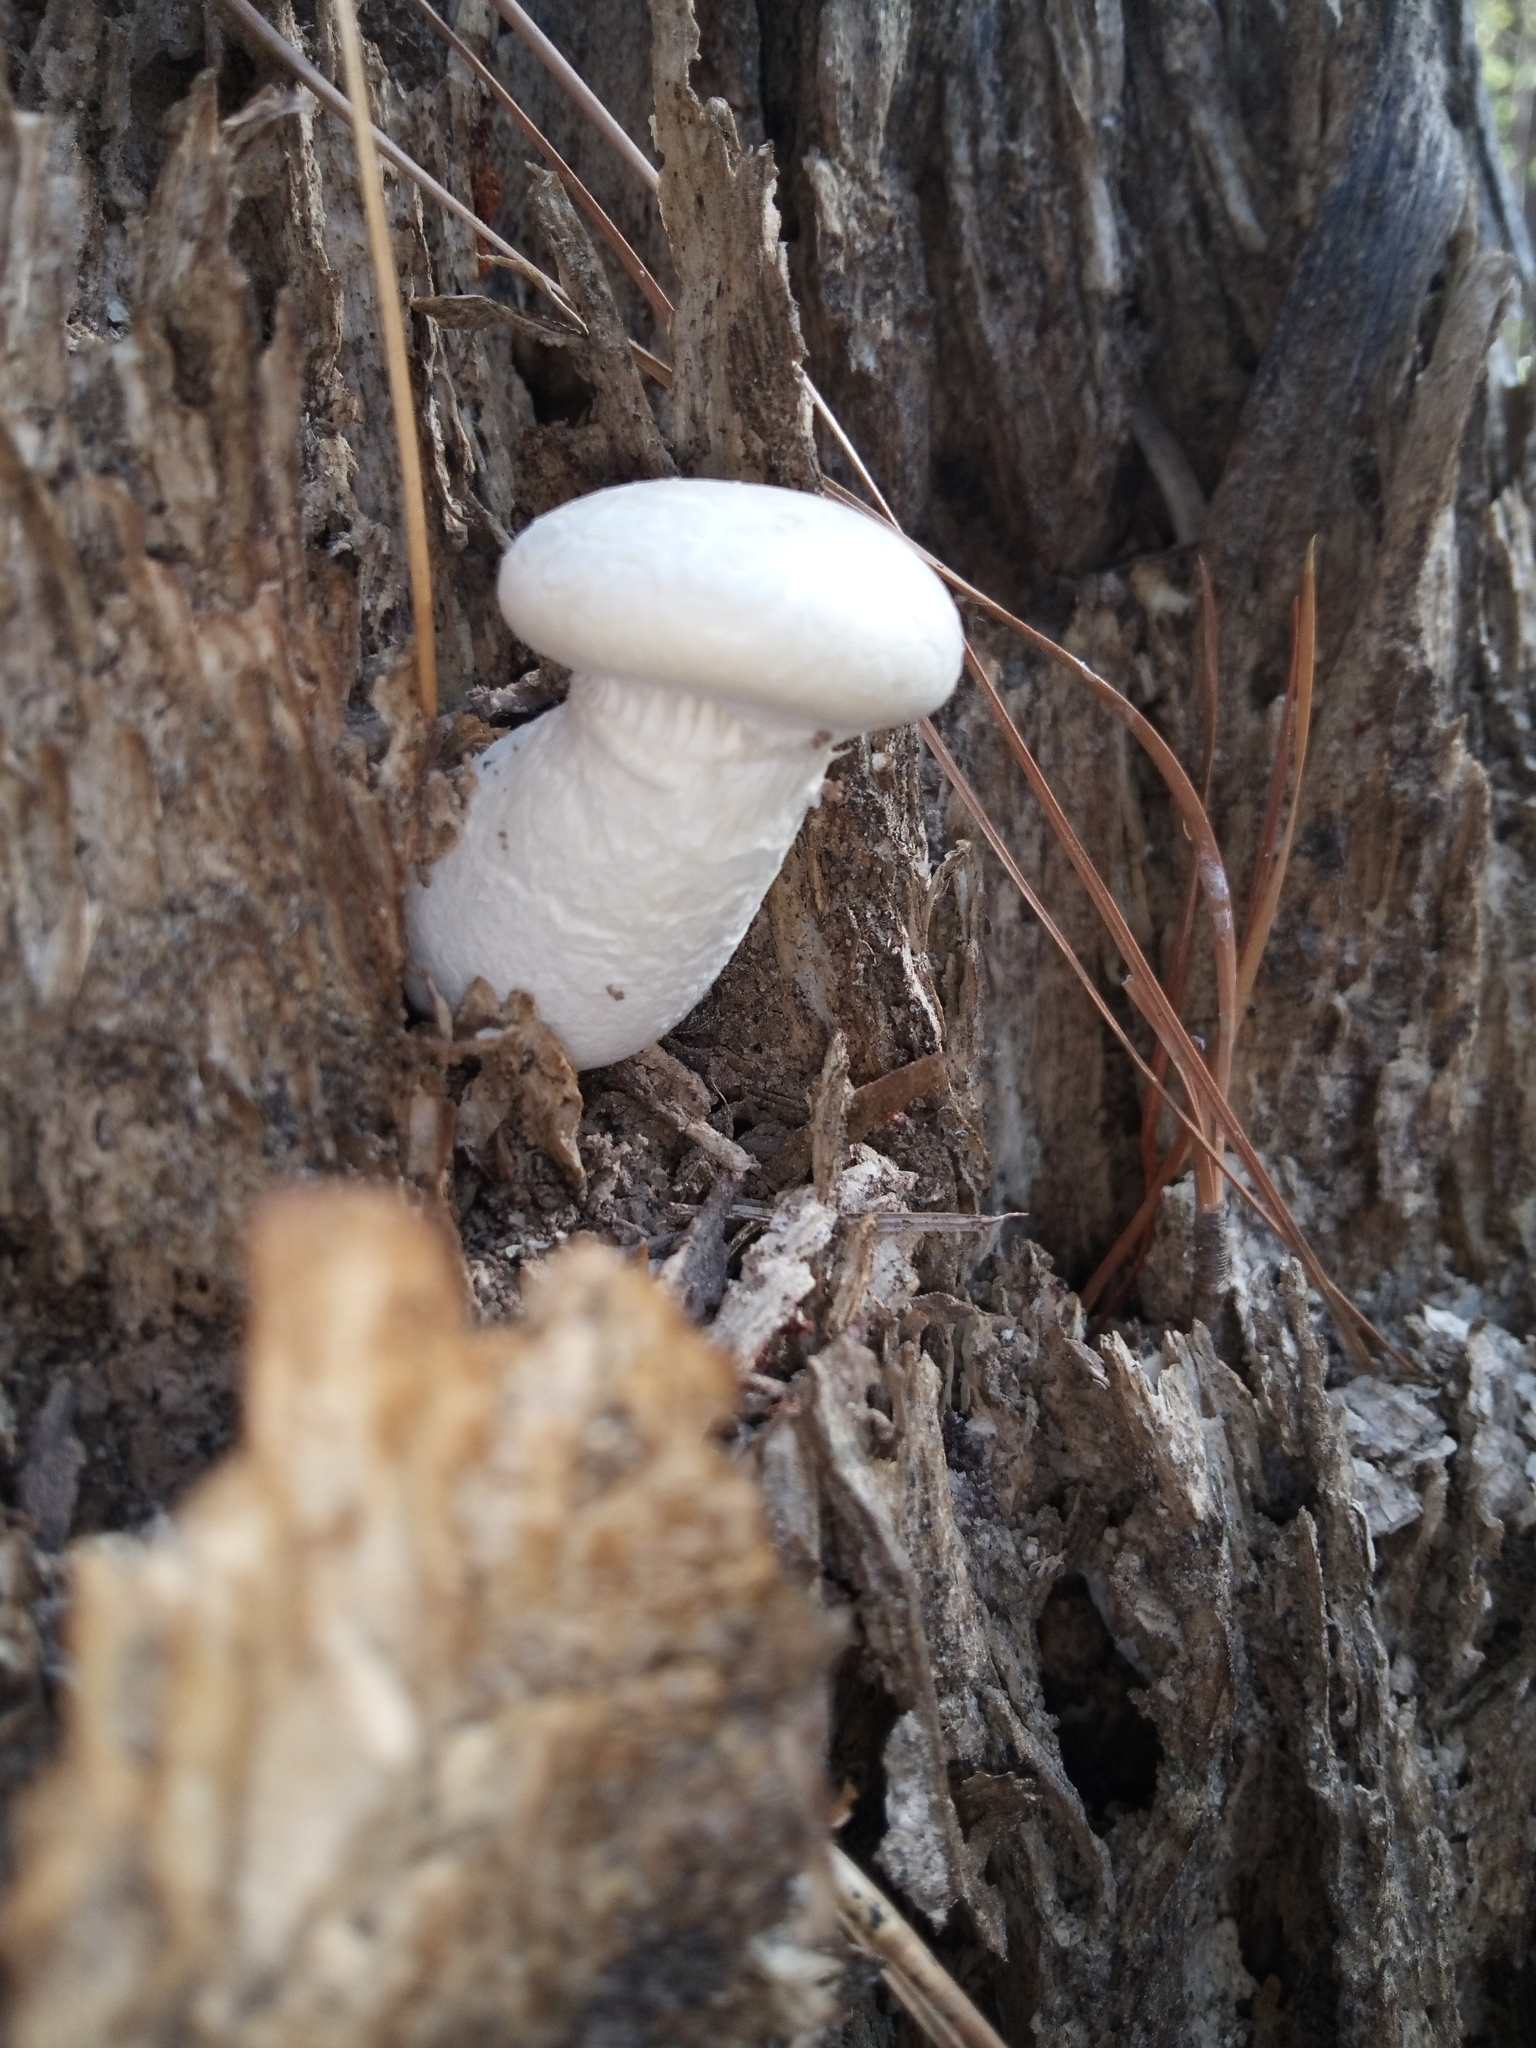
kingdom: Fungi
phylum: Basidiomycota
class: Agaricomycetes
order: Polyporales
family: Polyporaceae
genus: Lentinus
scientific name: Lentinus levis
